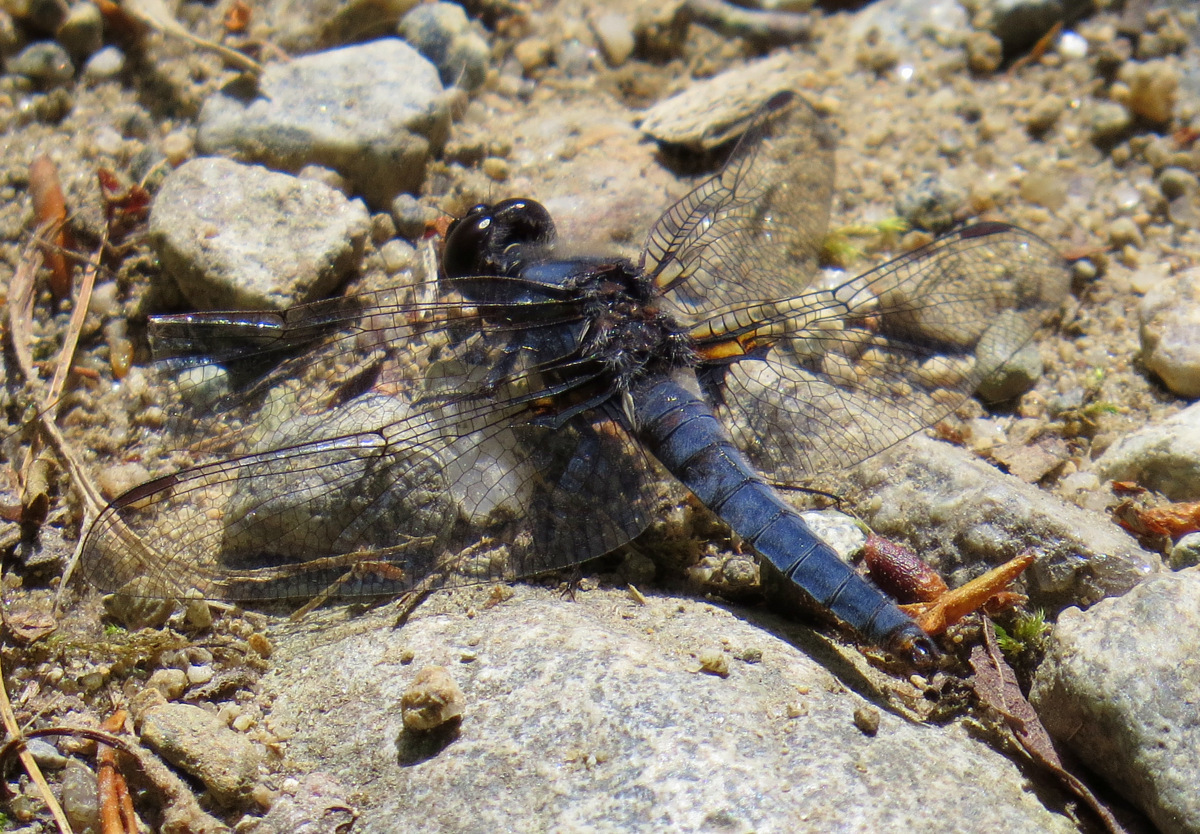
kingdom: Animalia
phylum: Arthropoda
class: Insecta
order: Odonata
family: Libellulidae
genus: Ladona
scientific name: Ladona deplanata
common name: Blue corporal
